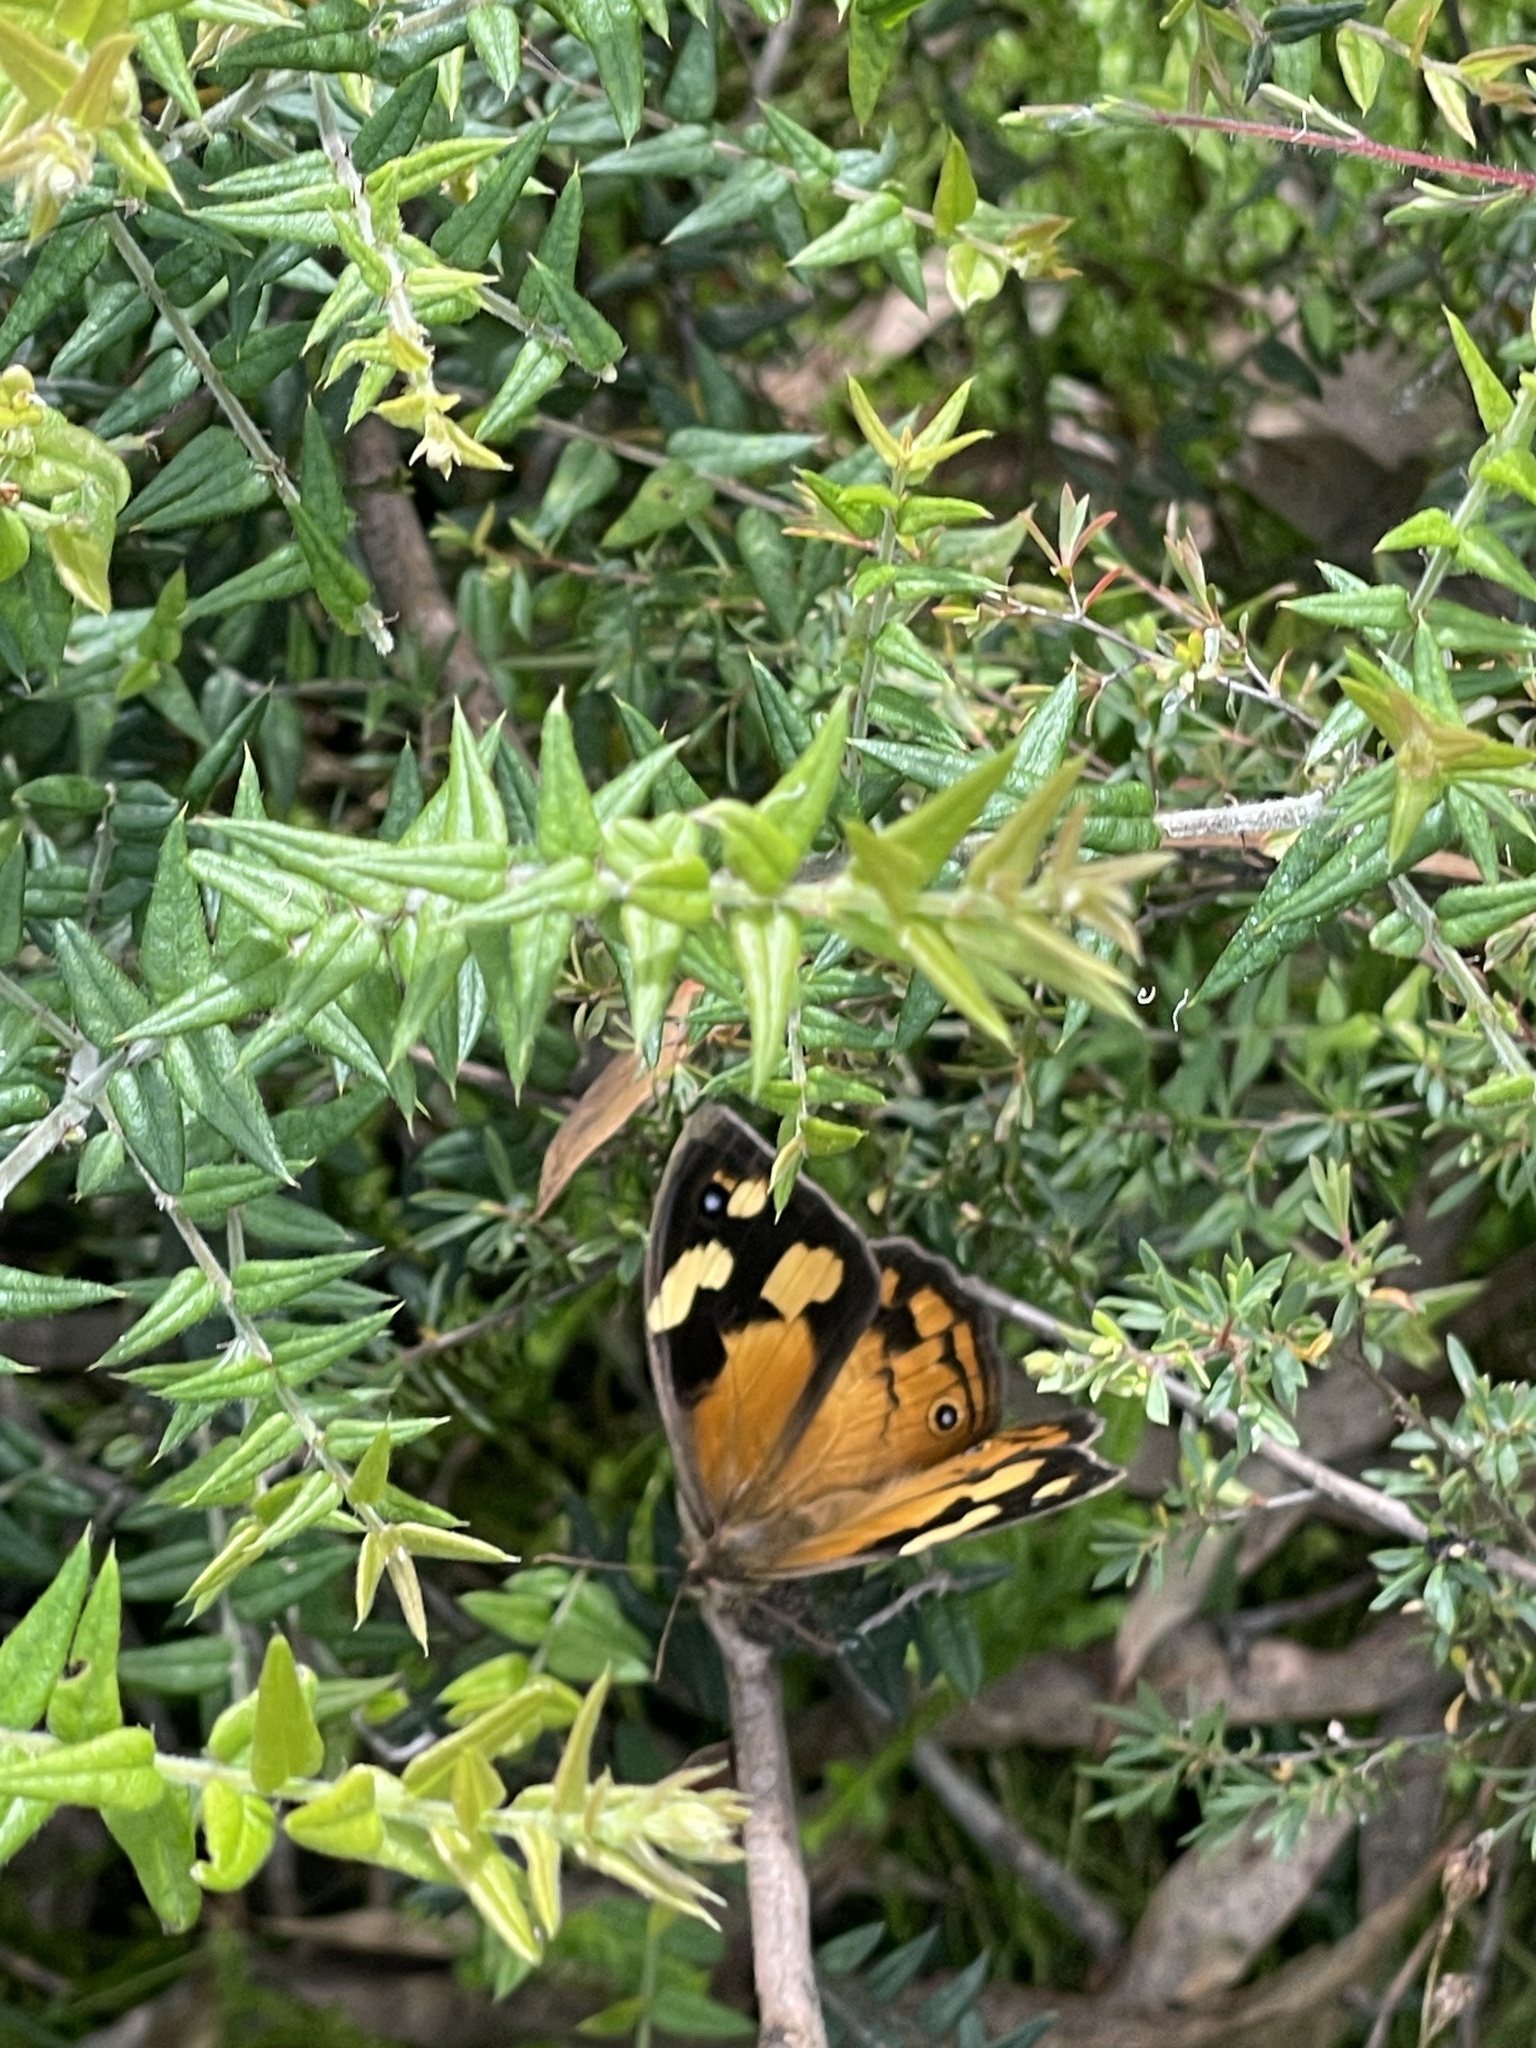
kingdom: Animalia
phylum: Arthropoda
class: Insecta
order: Lepidoptera
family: Nymphalidae
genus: Heteronympha
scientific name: Heteronympha merope
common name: Common brown
